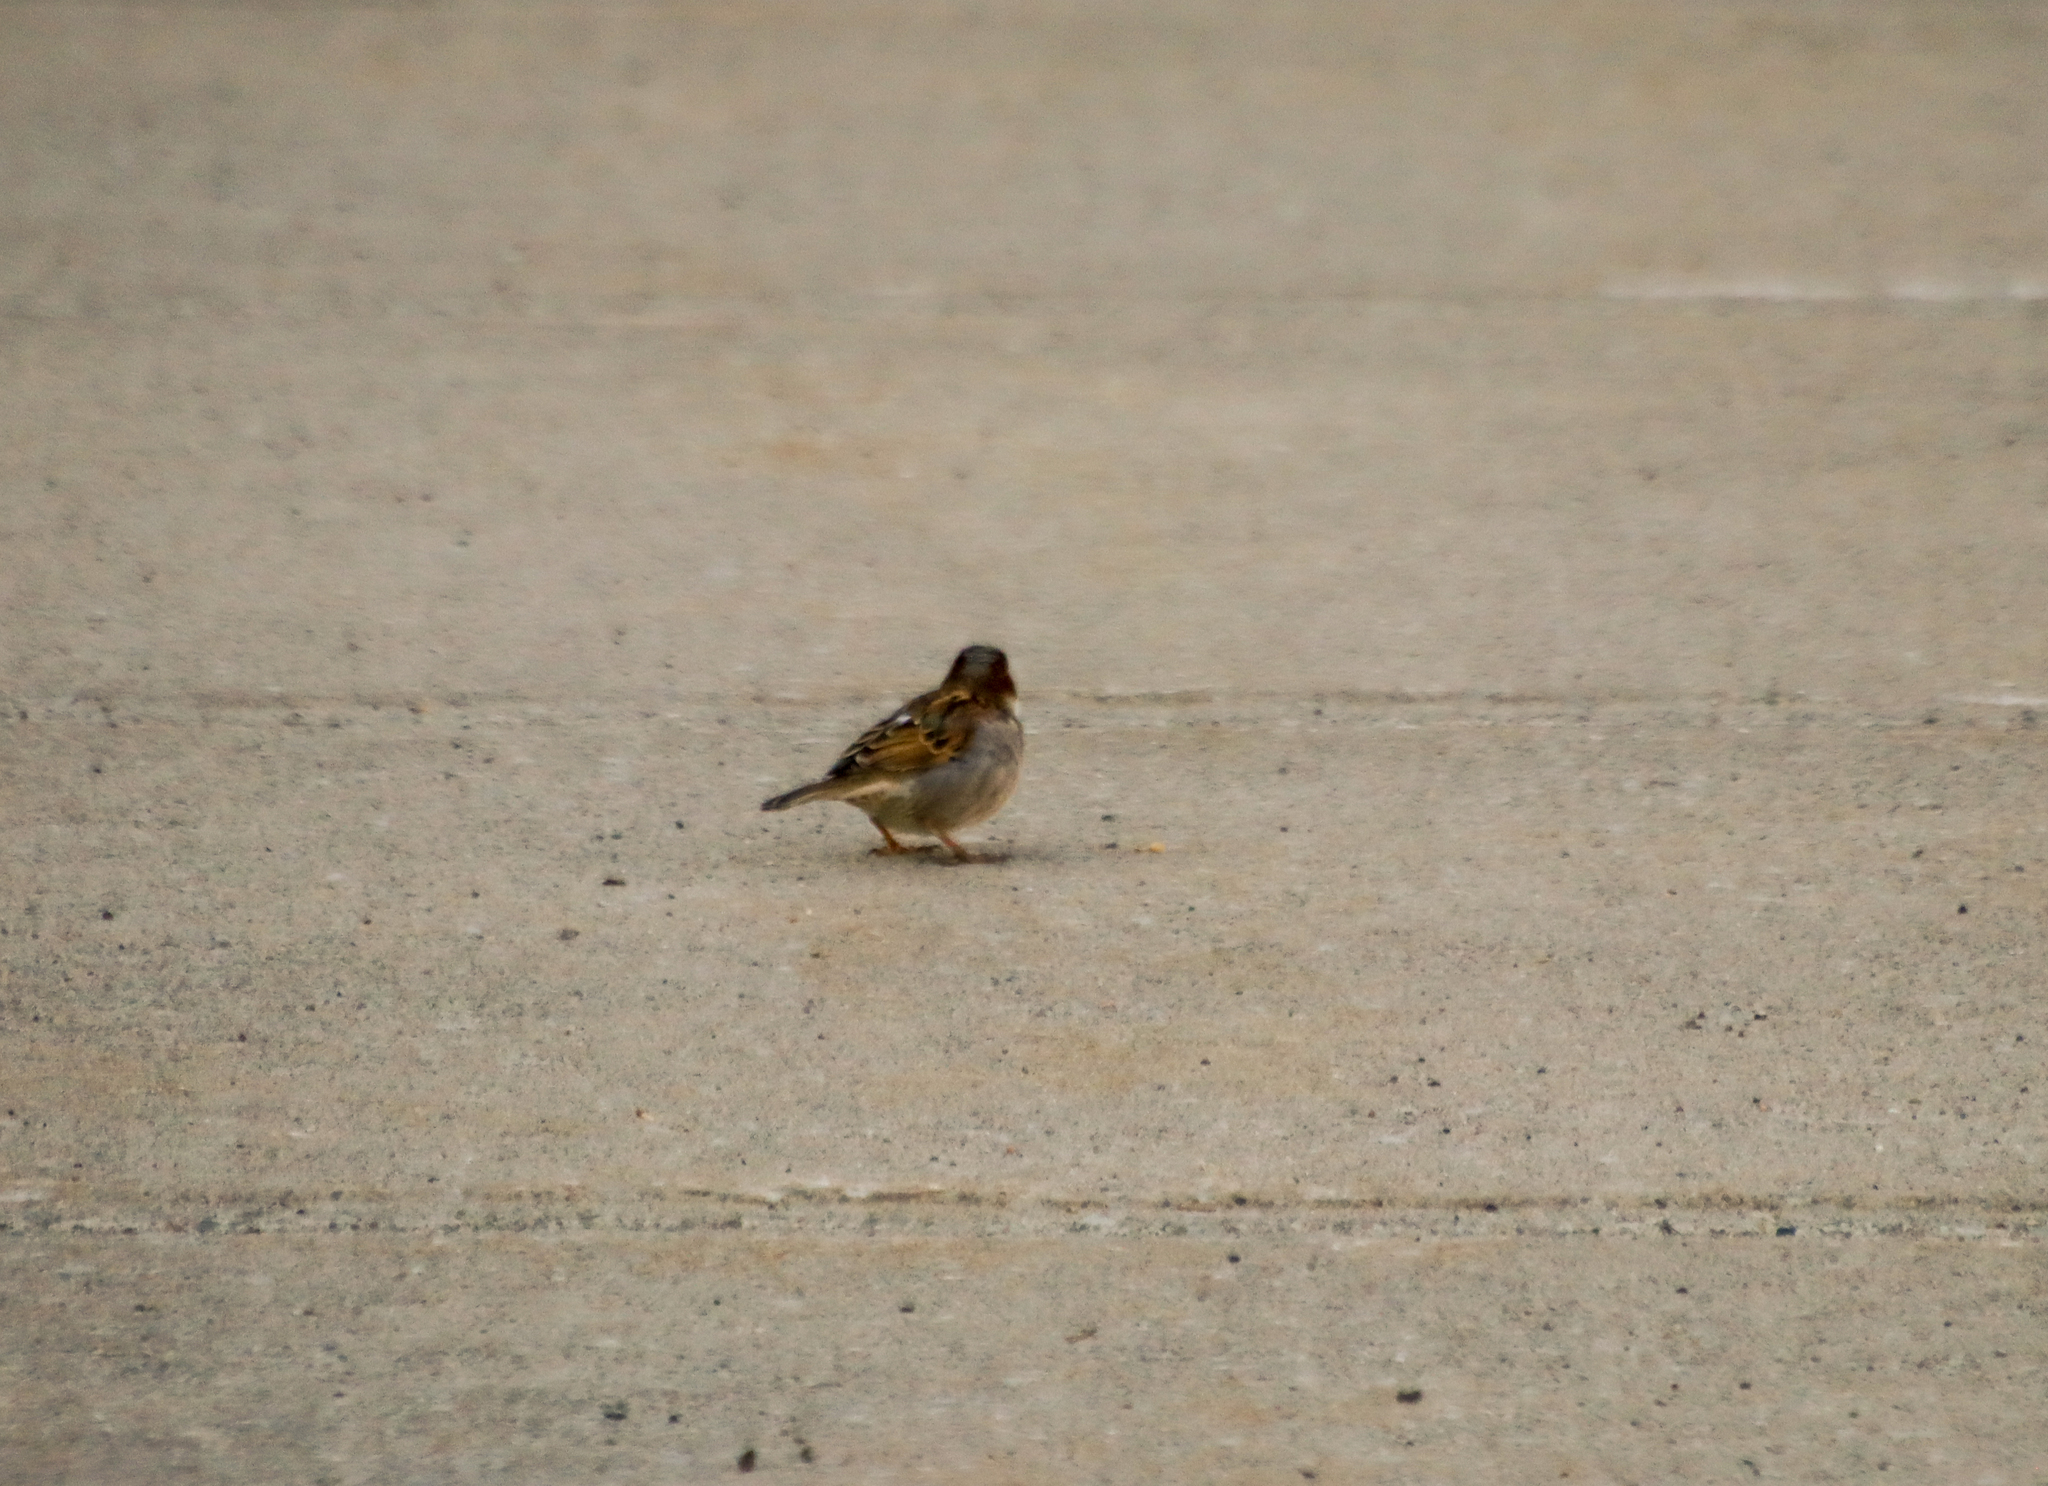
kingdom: Animalia
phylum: Chordata
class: Aves
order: Passeriformes
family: Passeridae
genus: Passer
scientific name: Passer domesticus
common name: House sparrow
